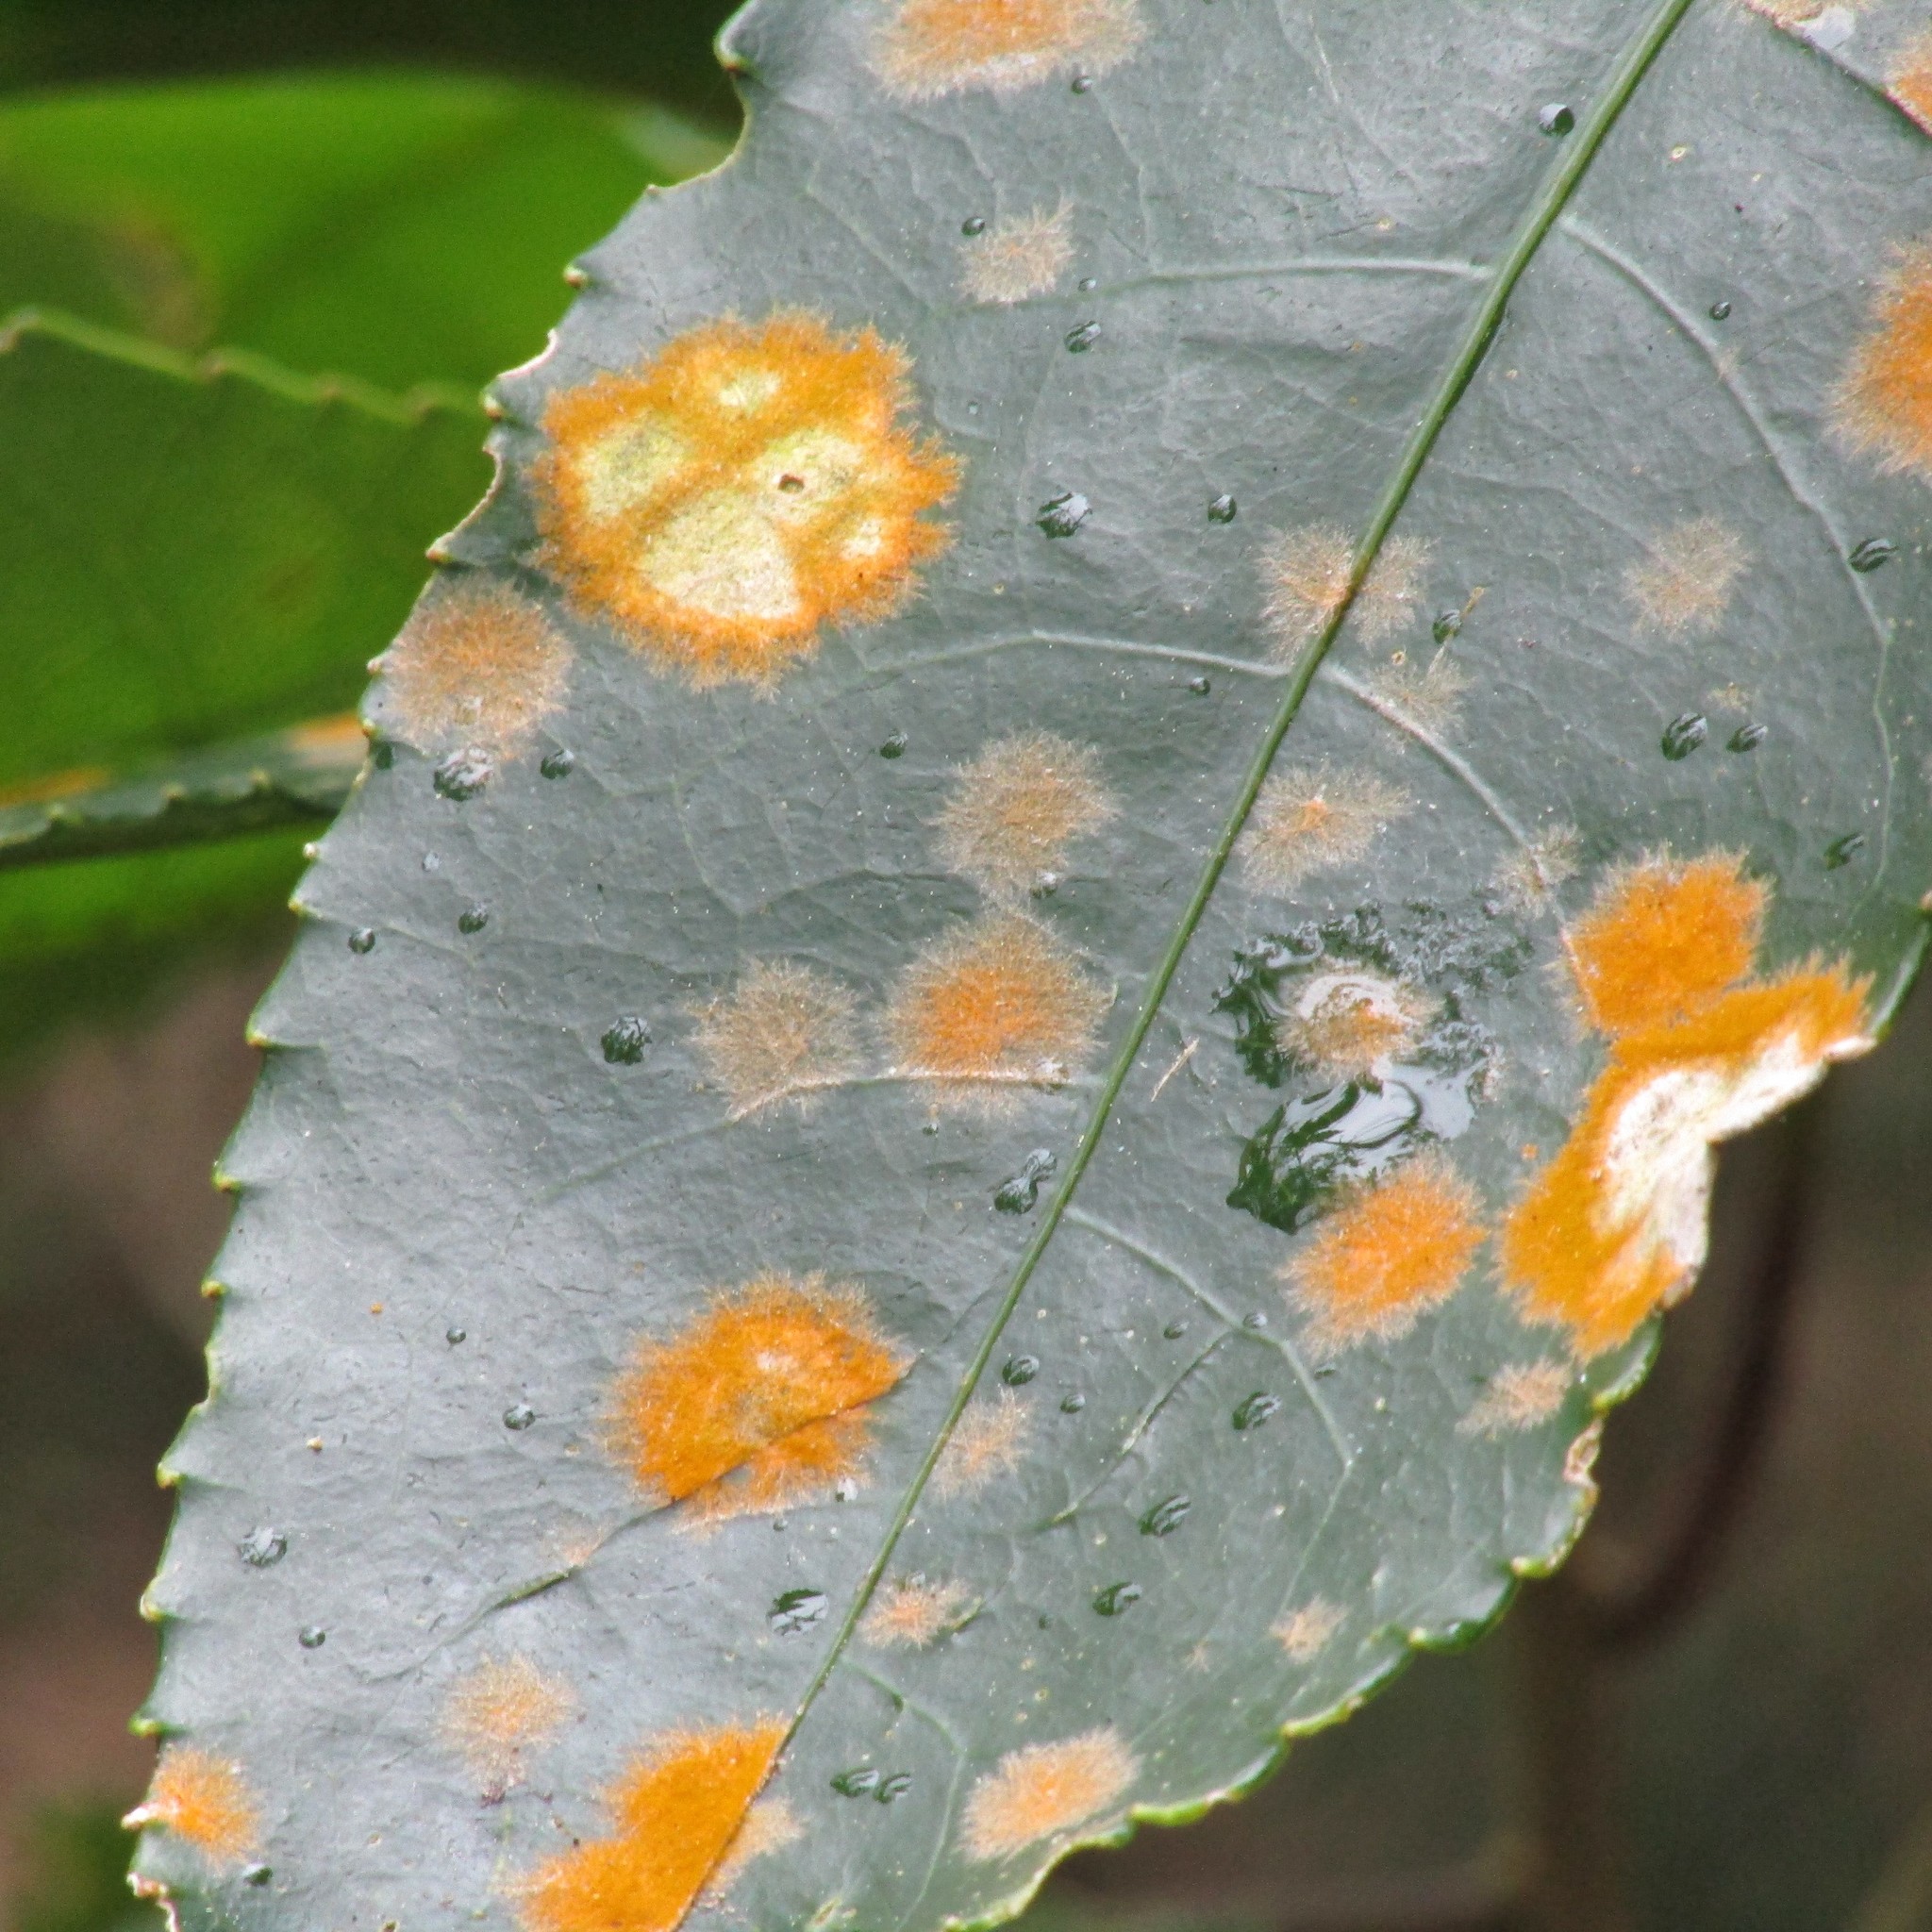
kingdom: Plantae
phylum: Chlorophyta
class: Ulvophyceae
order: Trentepohliales
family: Trentepohliaceae
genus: Cephaleuros
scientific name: Cephaleuros
